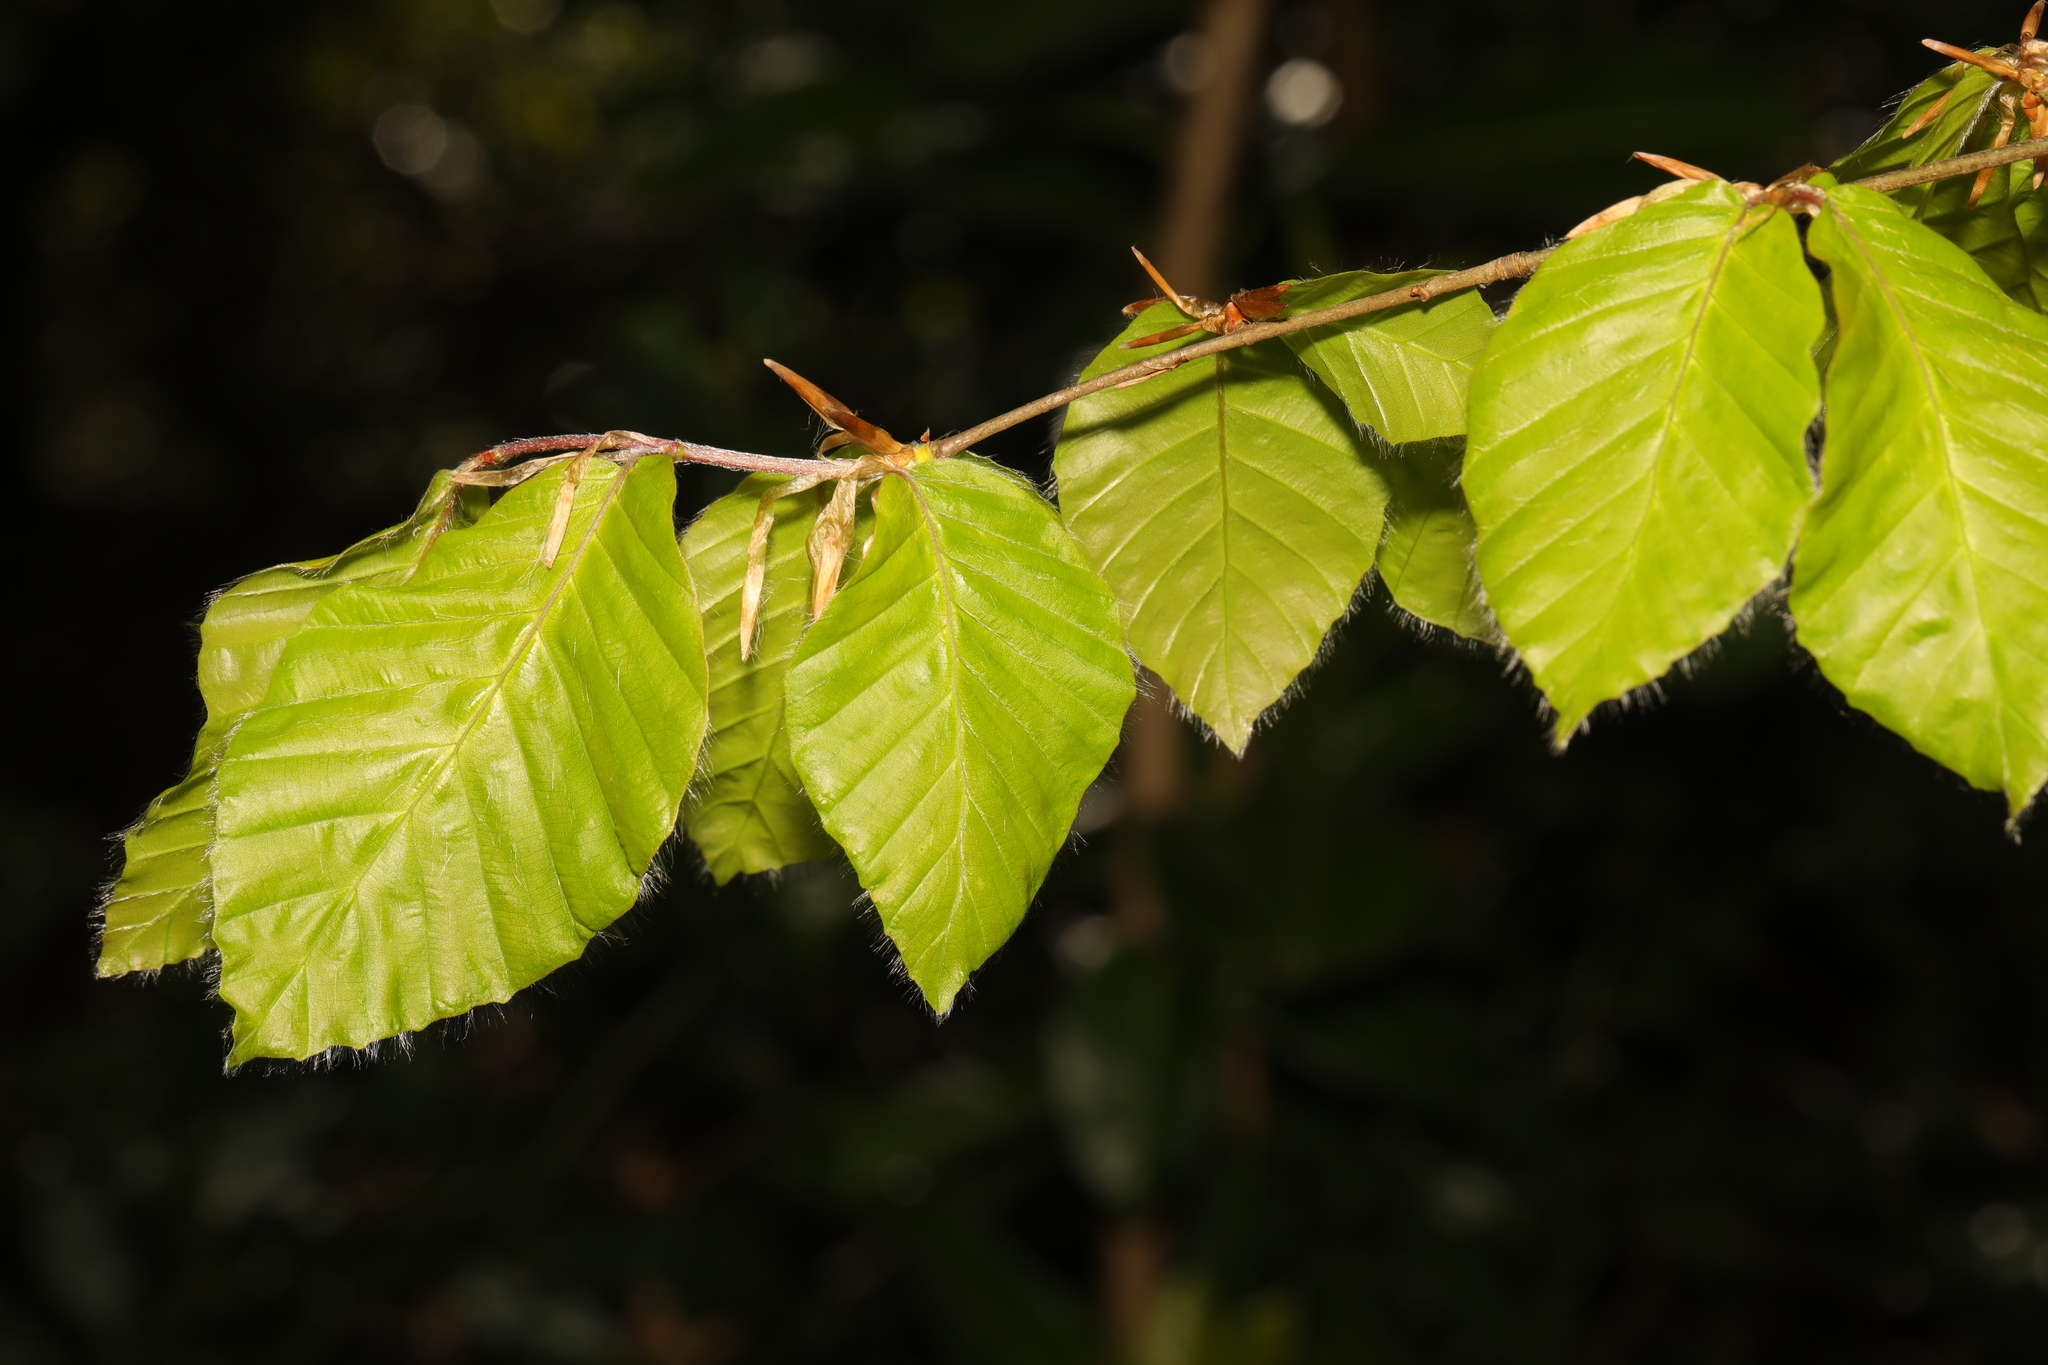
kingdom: Plantae
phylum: Tracheophyta
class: Magnoliopsida
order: Fagales
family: Fagaceae
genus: Fagus
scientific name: Fagus sylvatica
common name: Beech
